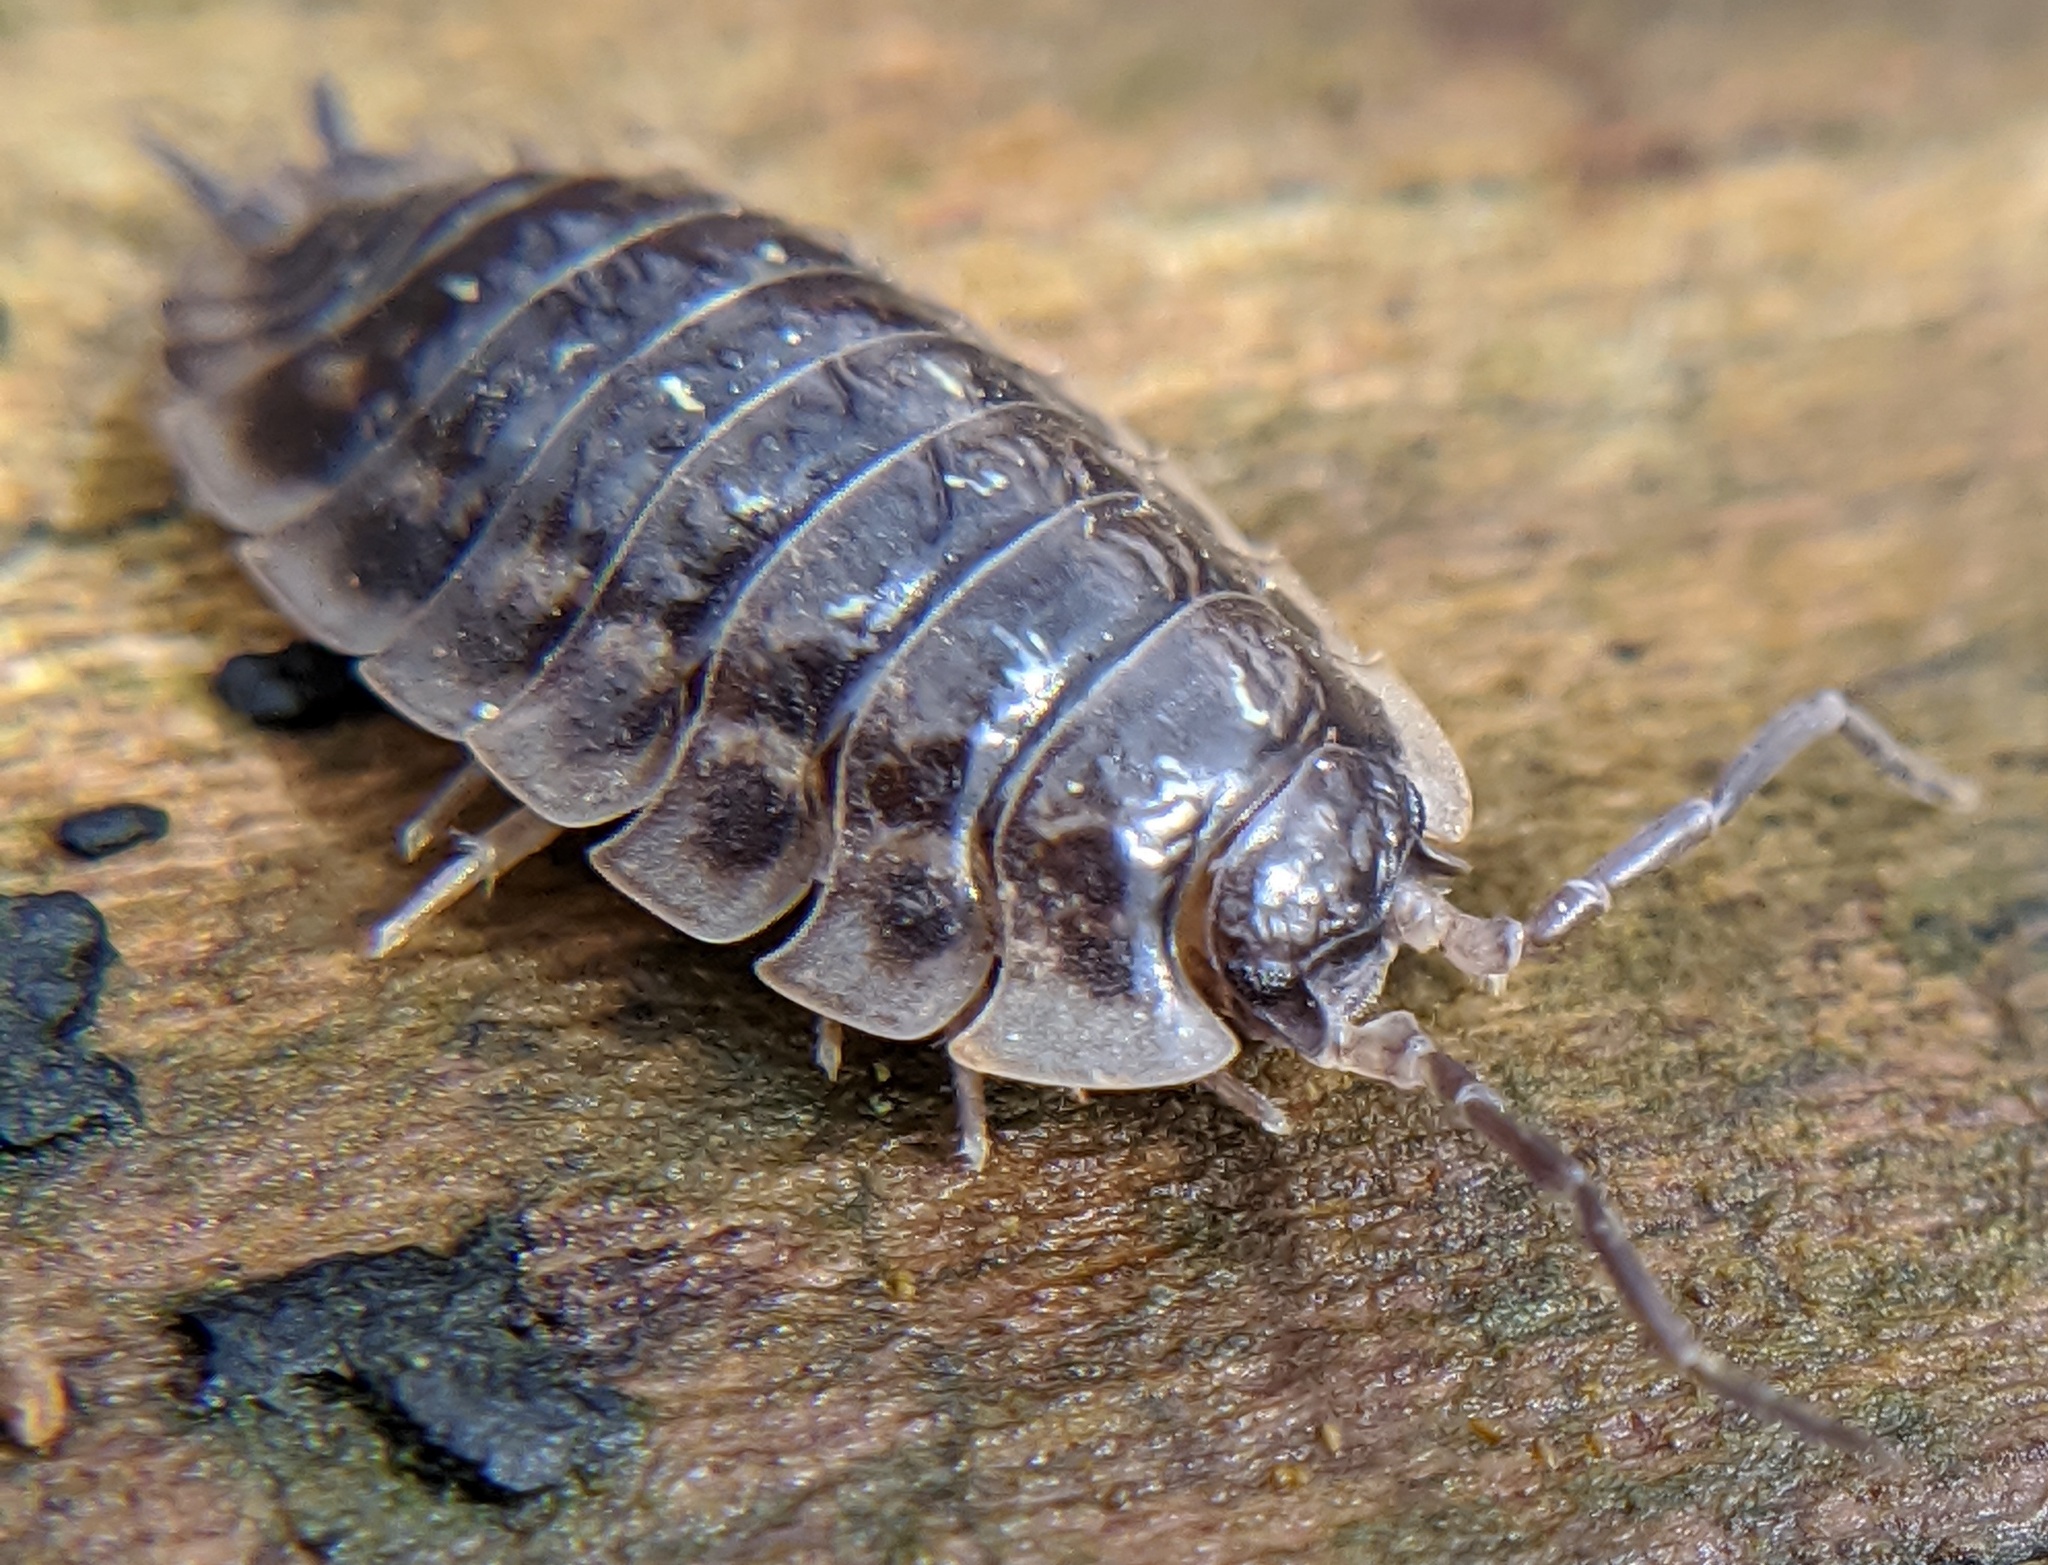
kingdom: Animalia
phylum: Arthropoda
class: Malacostraca
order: Isopoda
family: Oniscidae
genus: Oniscus
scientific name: Oniscus asellus
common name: Common shiny woodlouse
